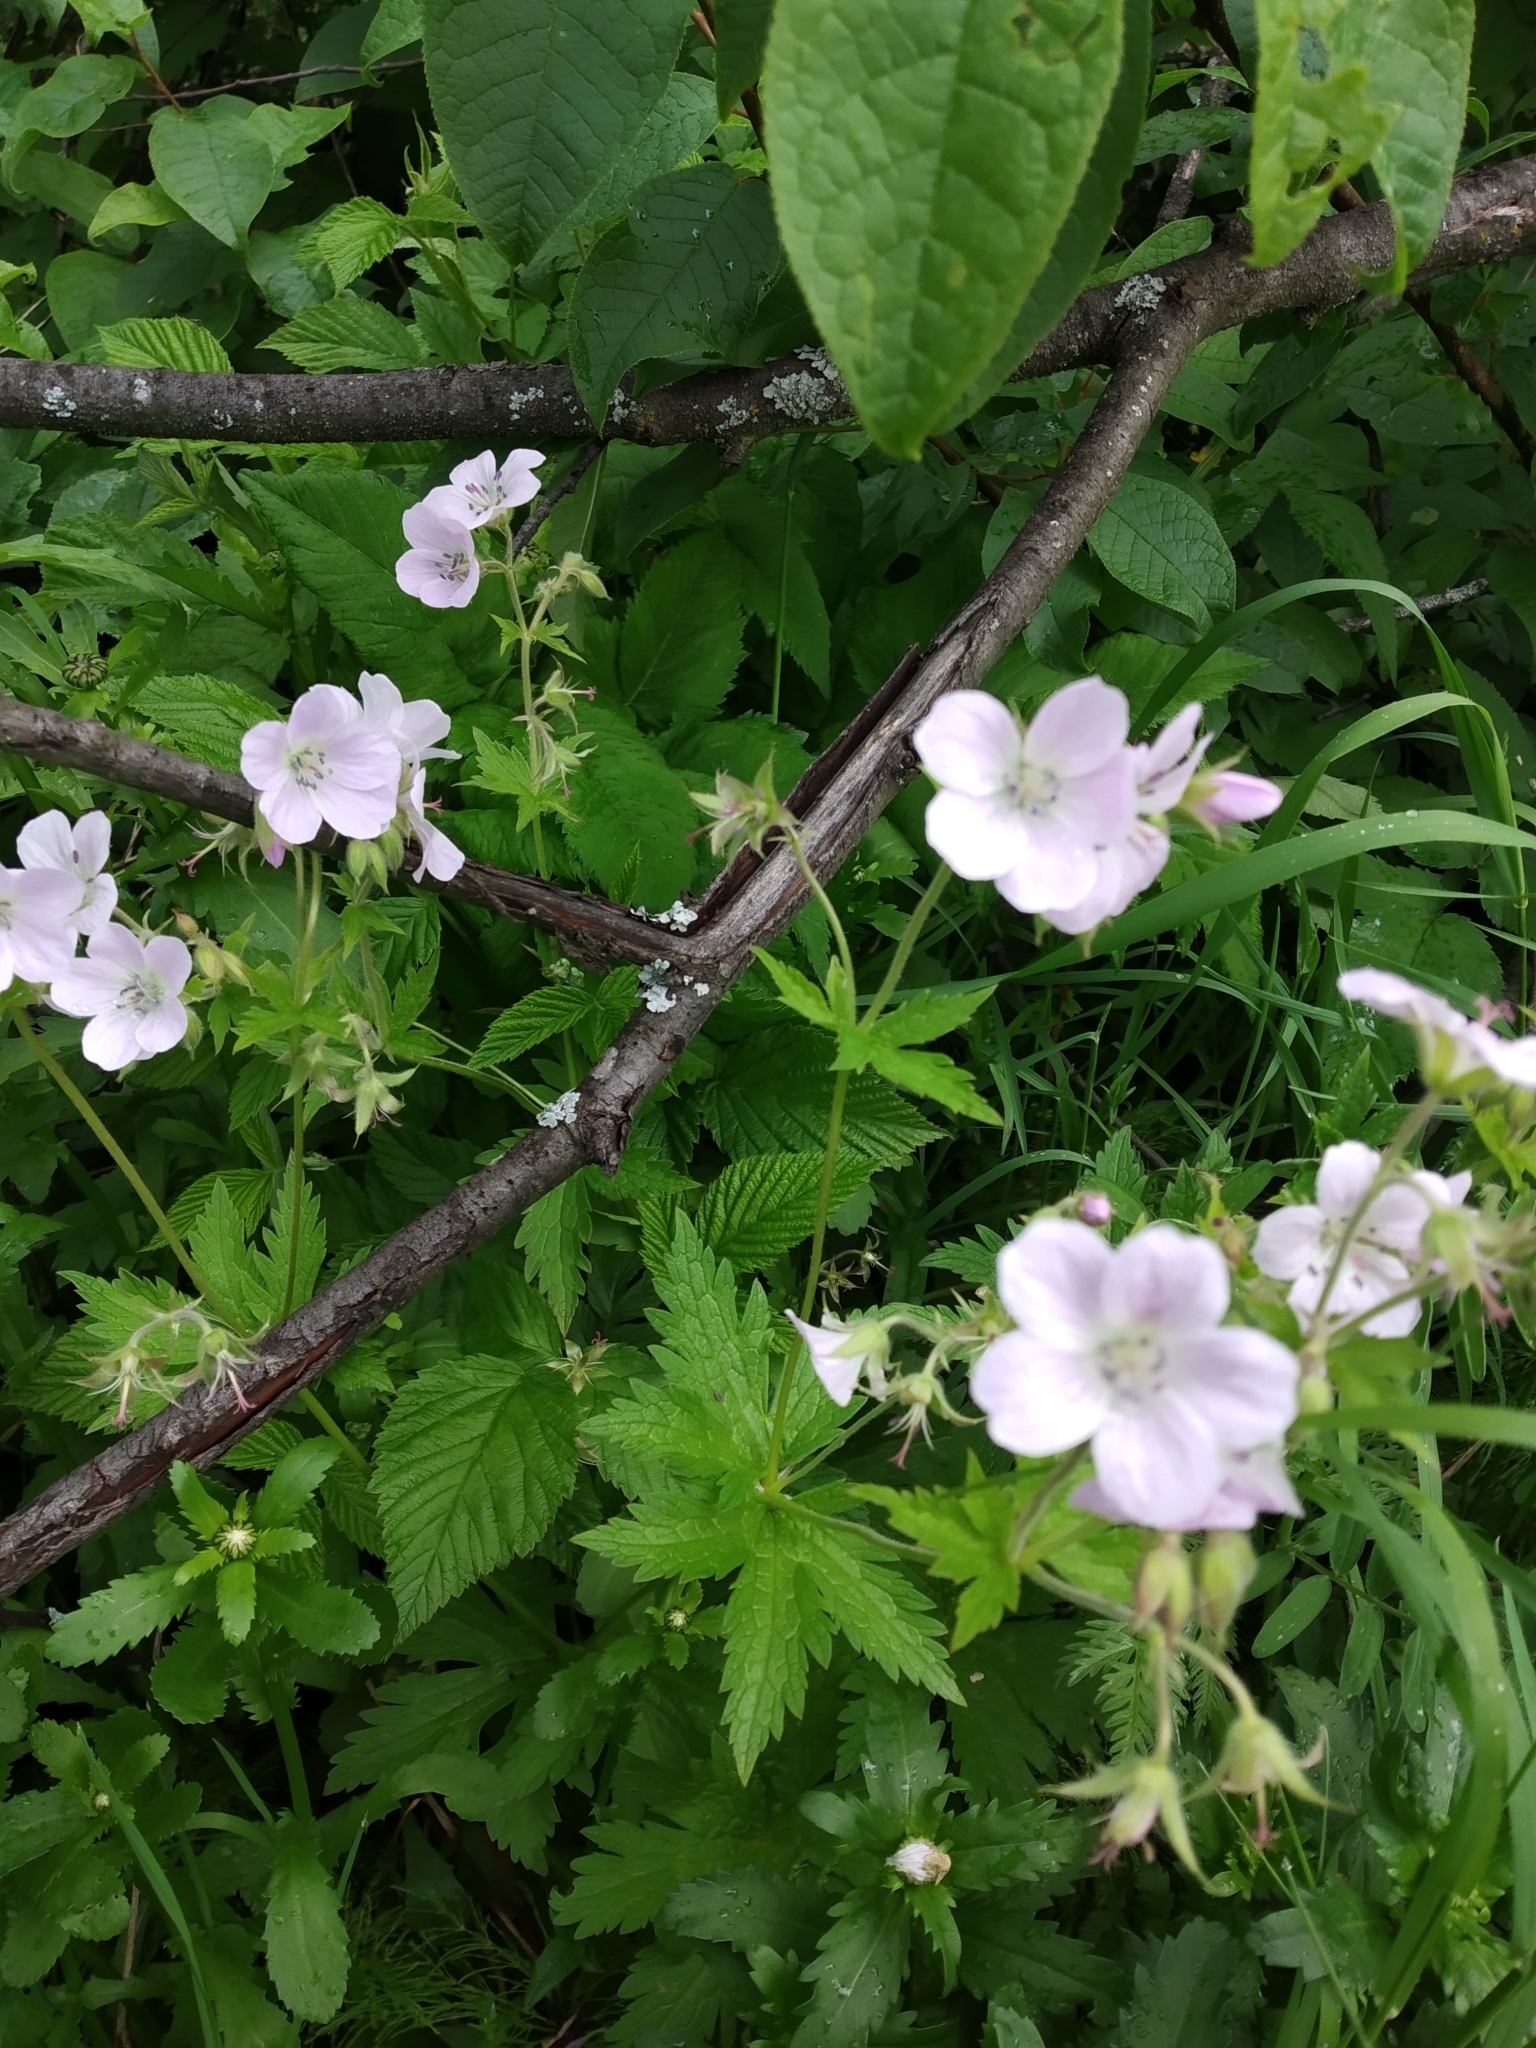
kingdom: Plantae
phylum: Tracheophyta
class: Magnoliopsida
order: Geraniales
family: Geraniaceae
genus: Geranium
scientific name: Geranium sylvaticum
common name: Wood crane's-bill
